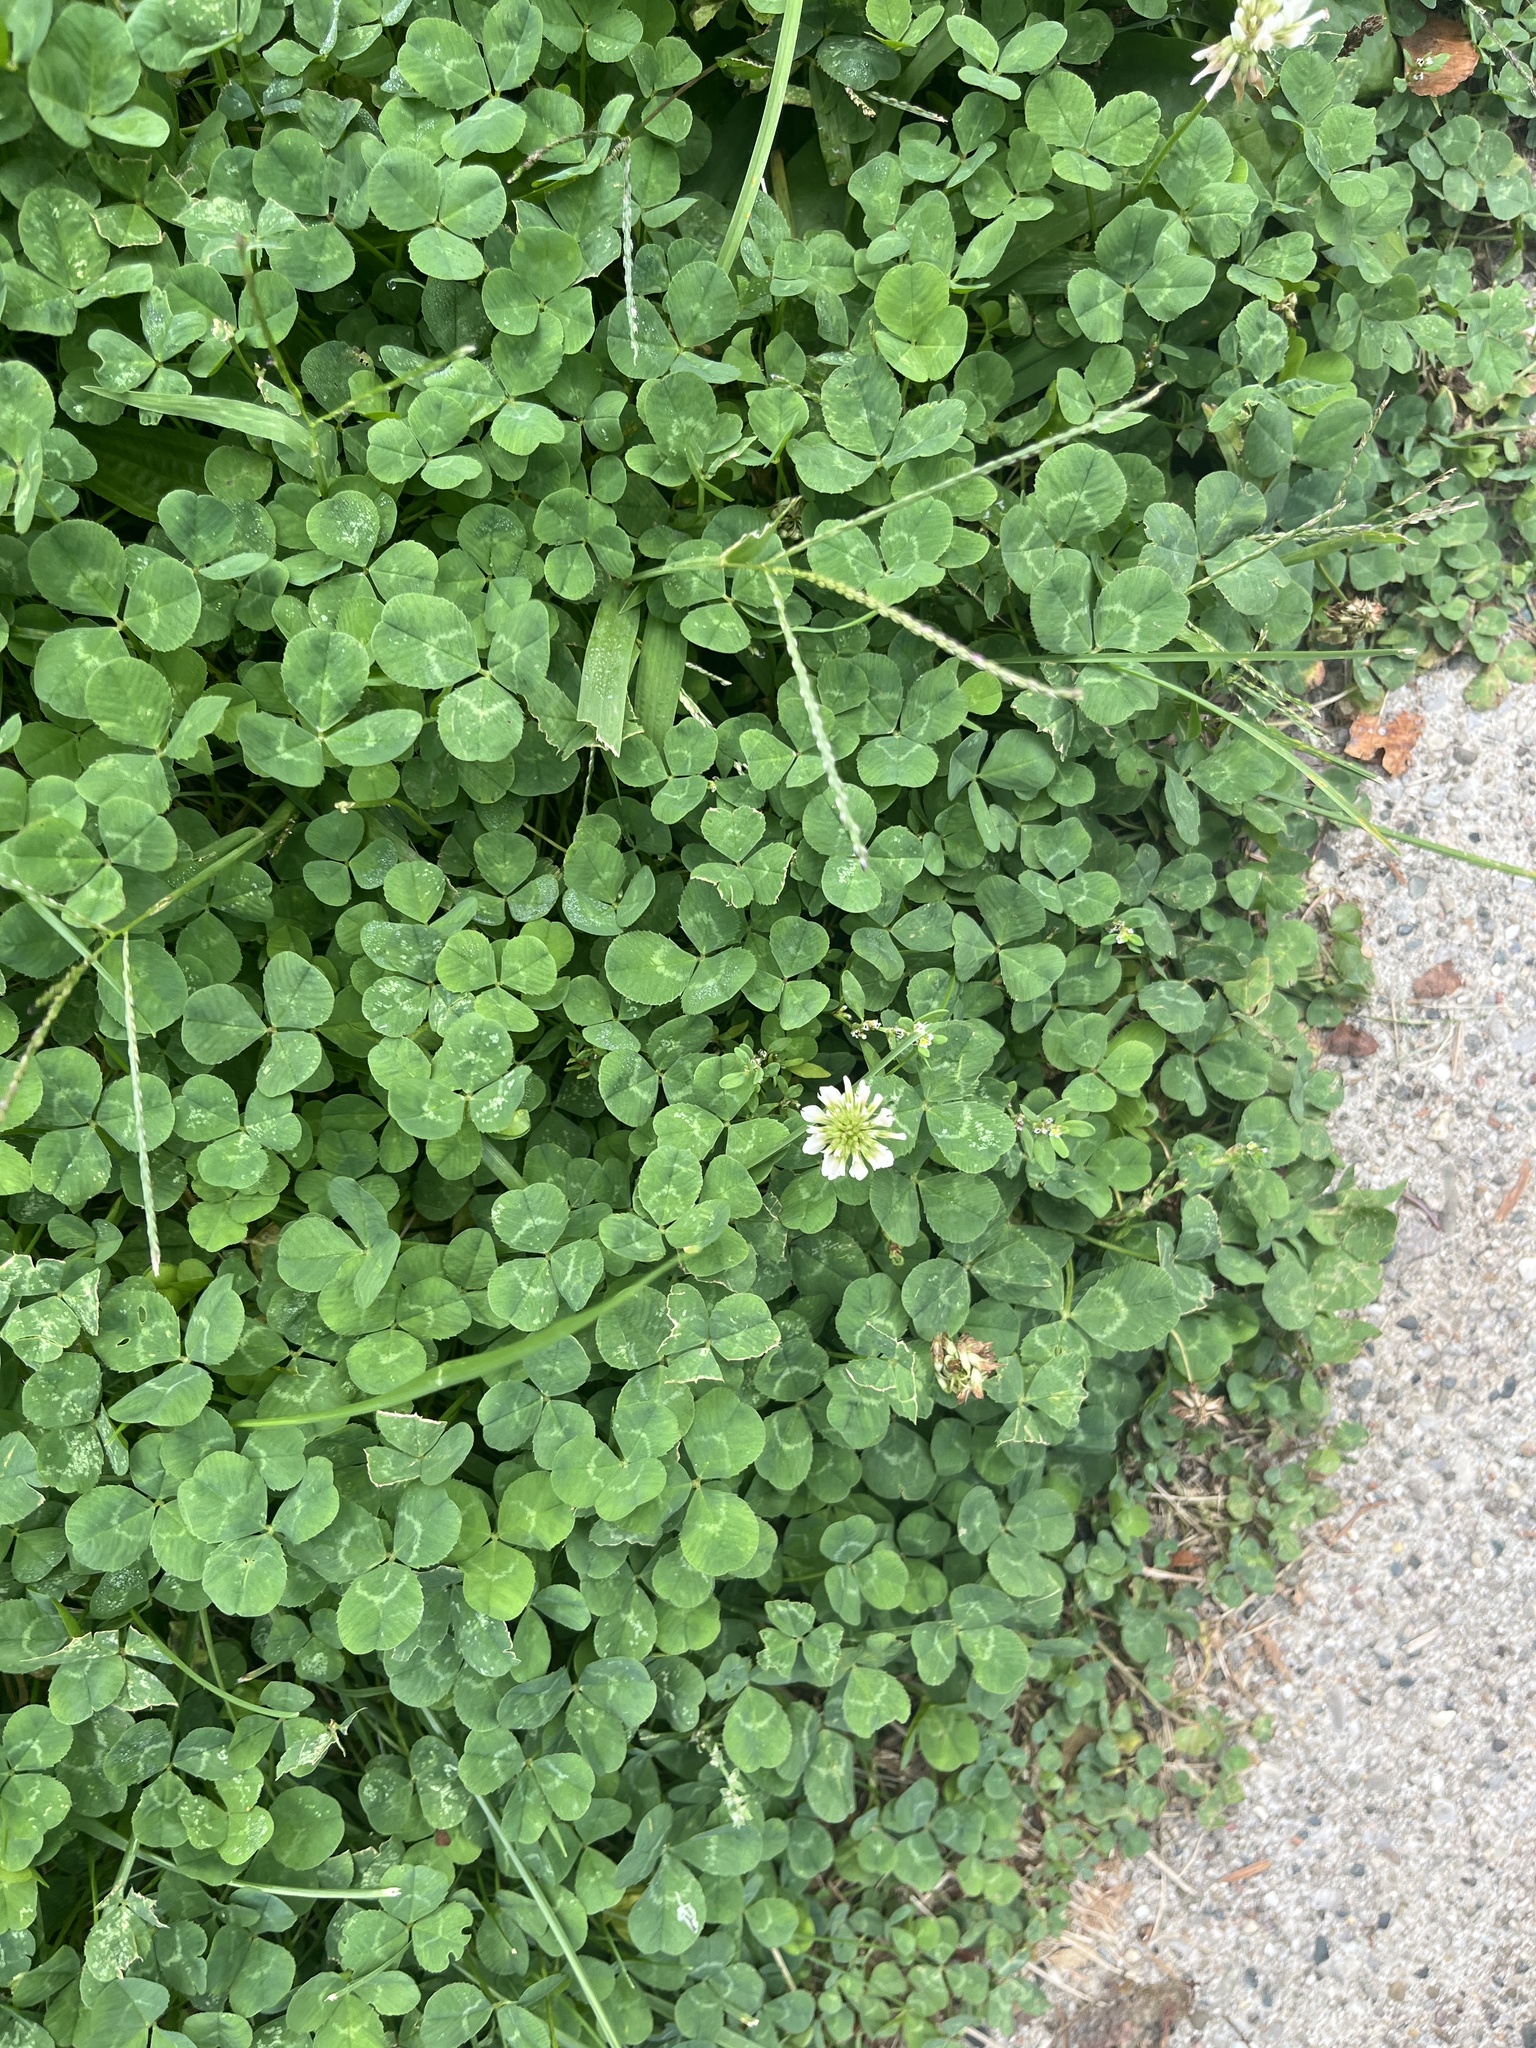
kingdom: Plantae
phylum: Tracheophyta
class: Magnoliopsida
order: Fabales
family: Fabaceae
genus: Trifolium
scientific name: Trifolium repens
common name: White clover
